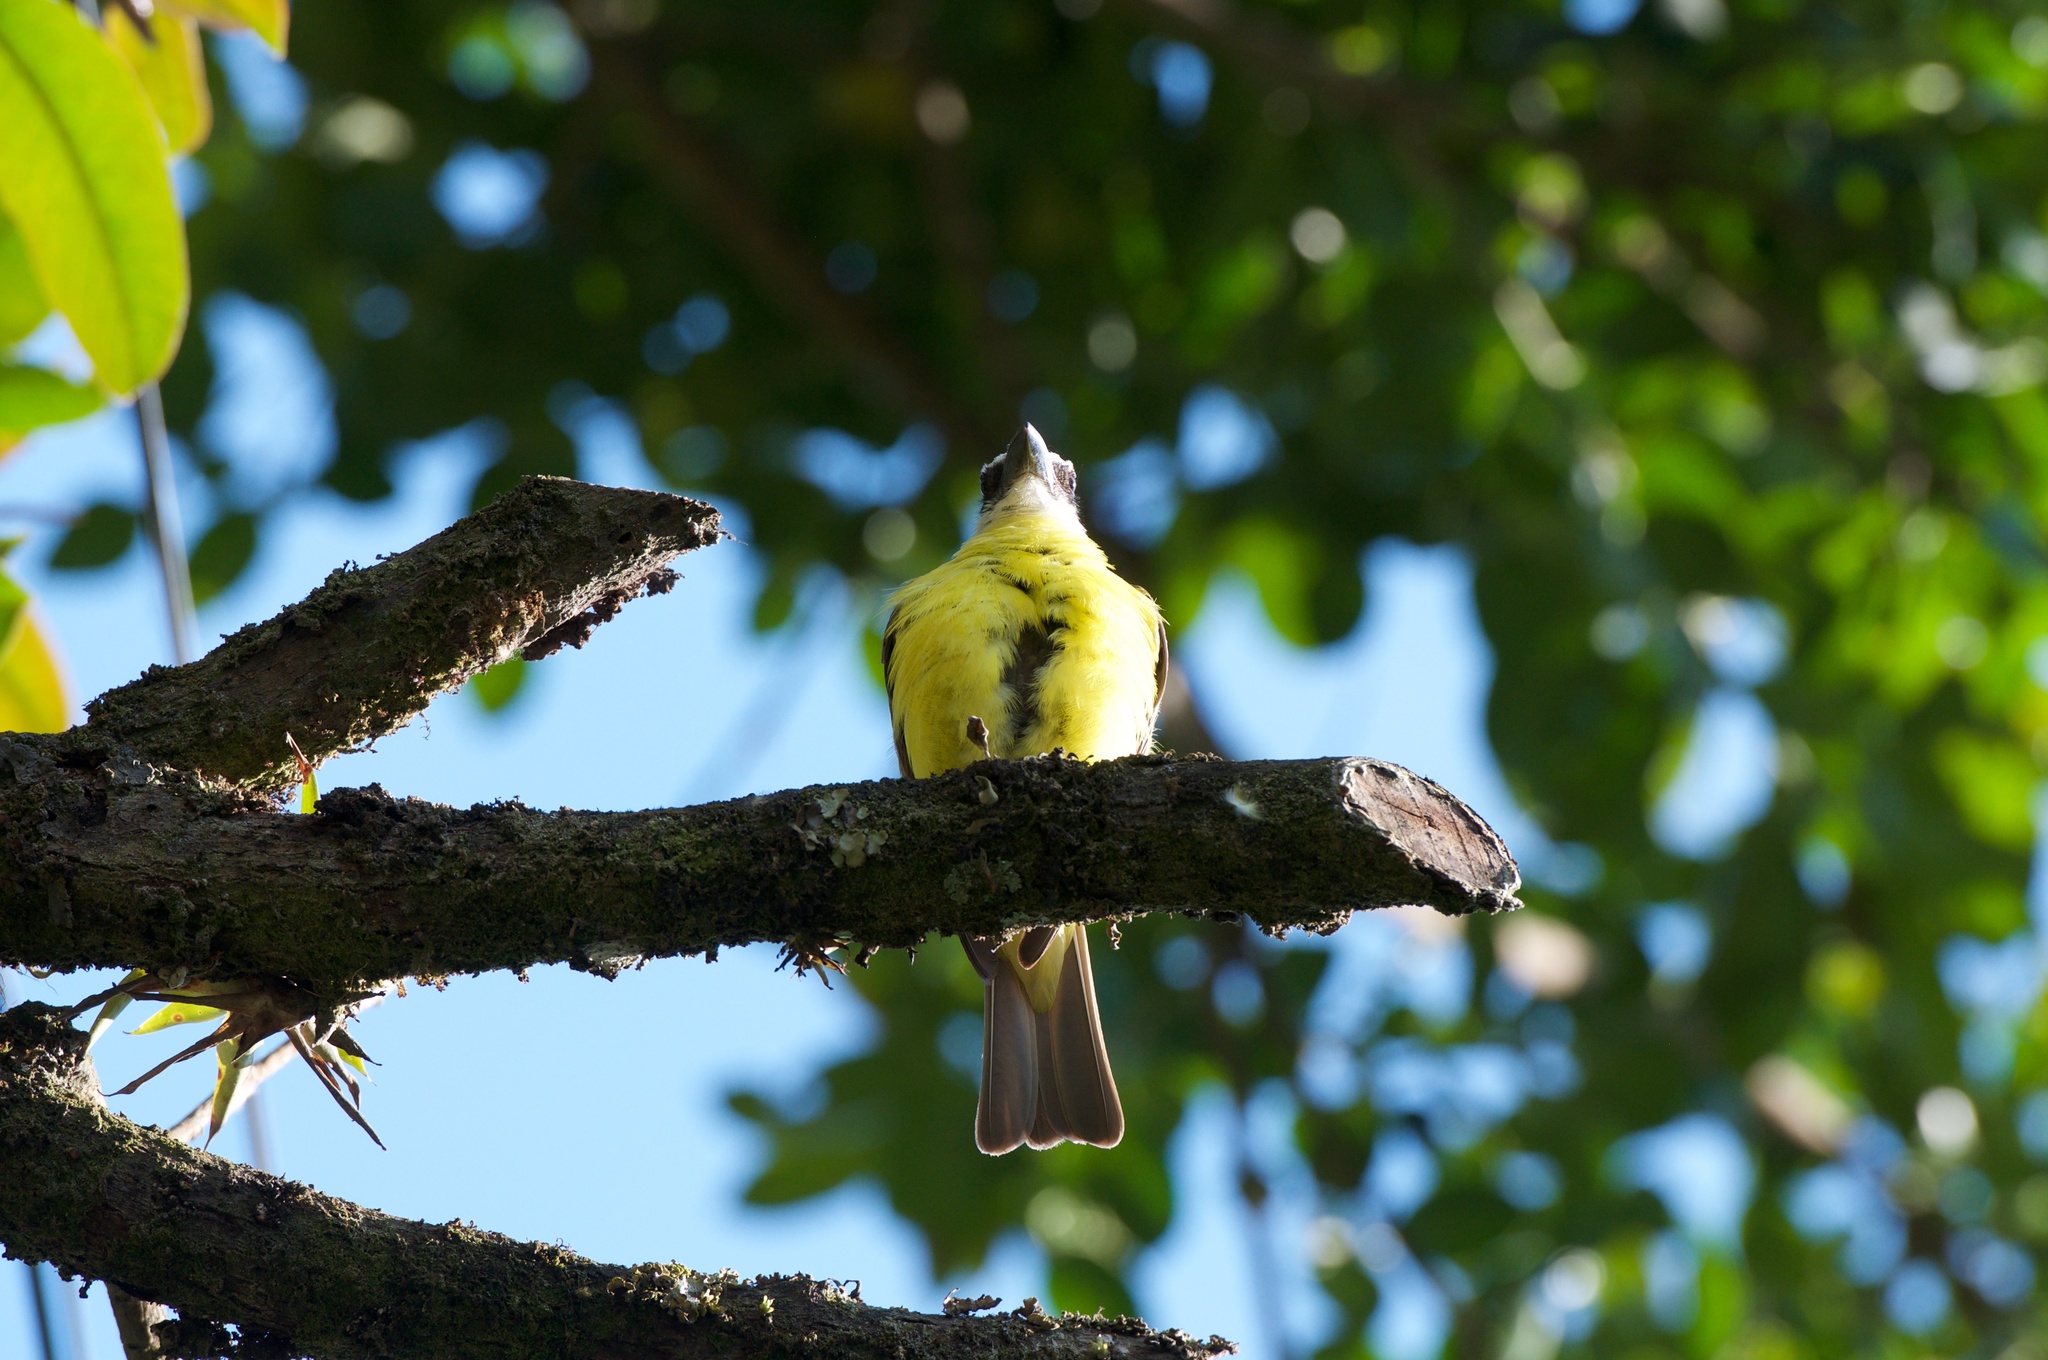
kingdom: Animalia
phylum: Chordata
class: Aves
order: Passeriformes
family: Tyrannidae
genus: Megarynchus
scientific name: Megarynchus pitangua
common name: Boat-billed flycatcher
